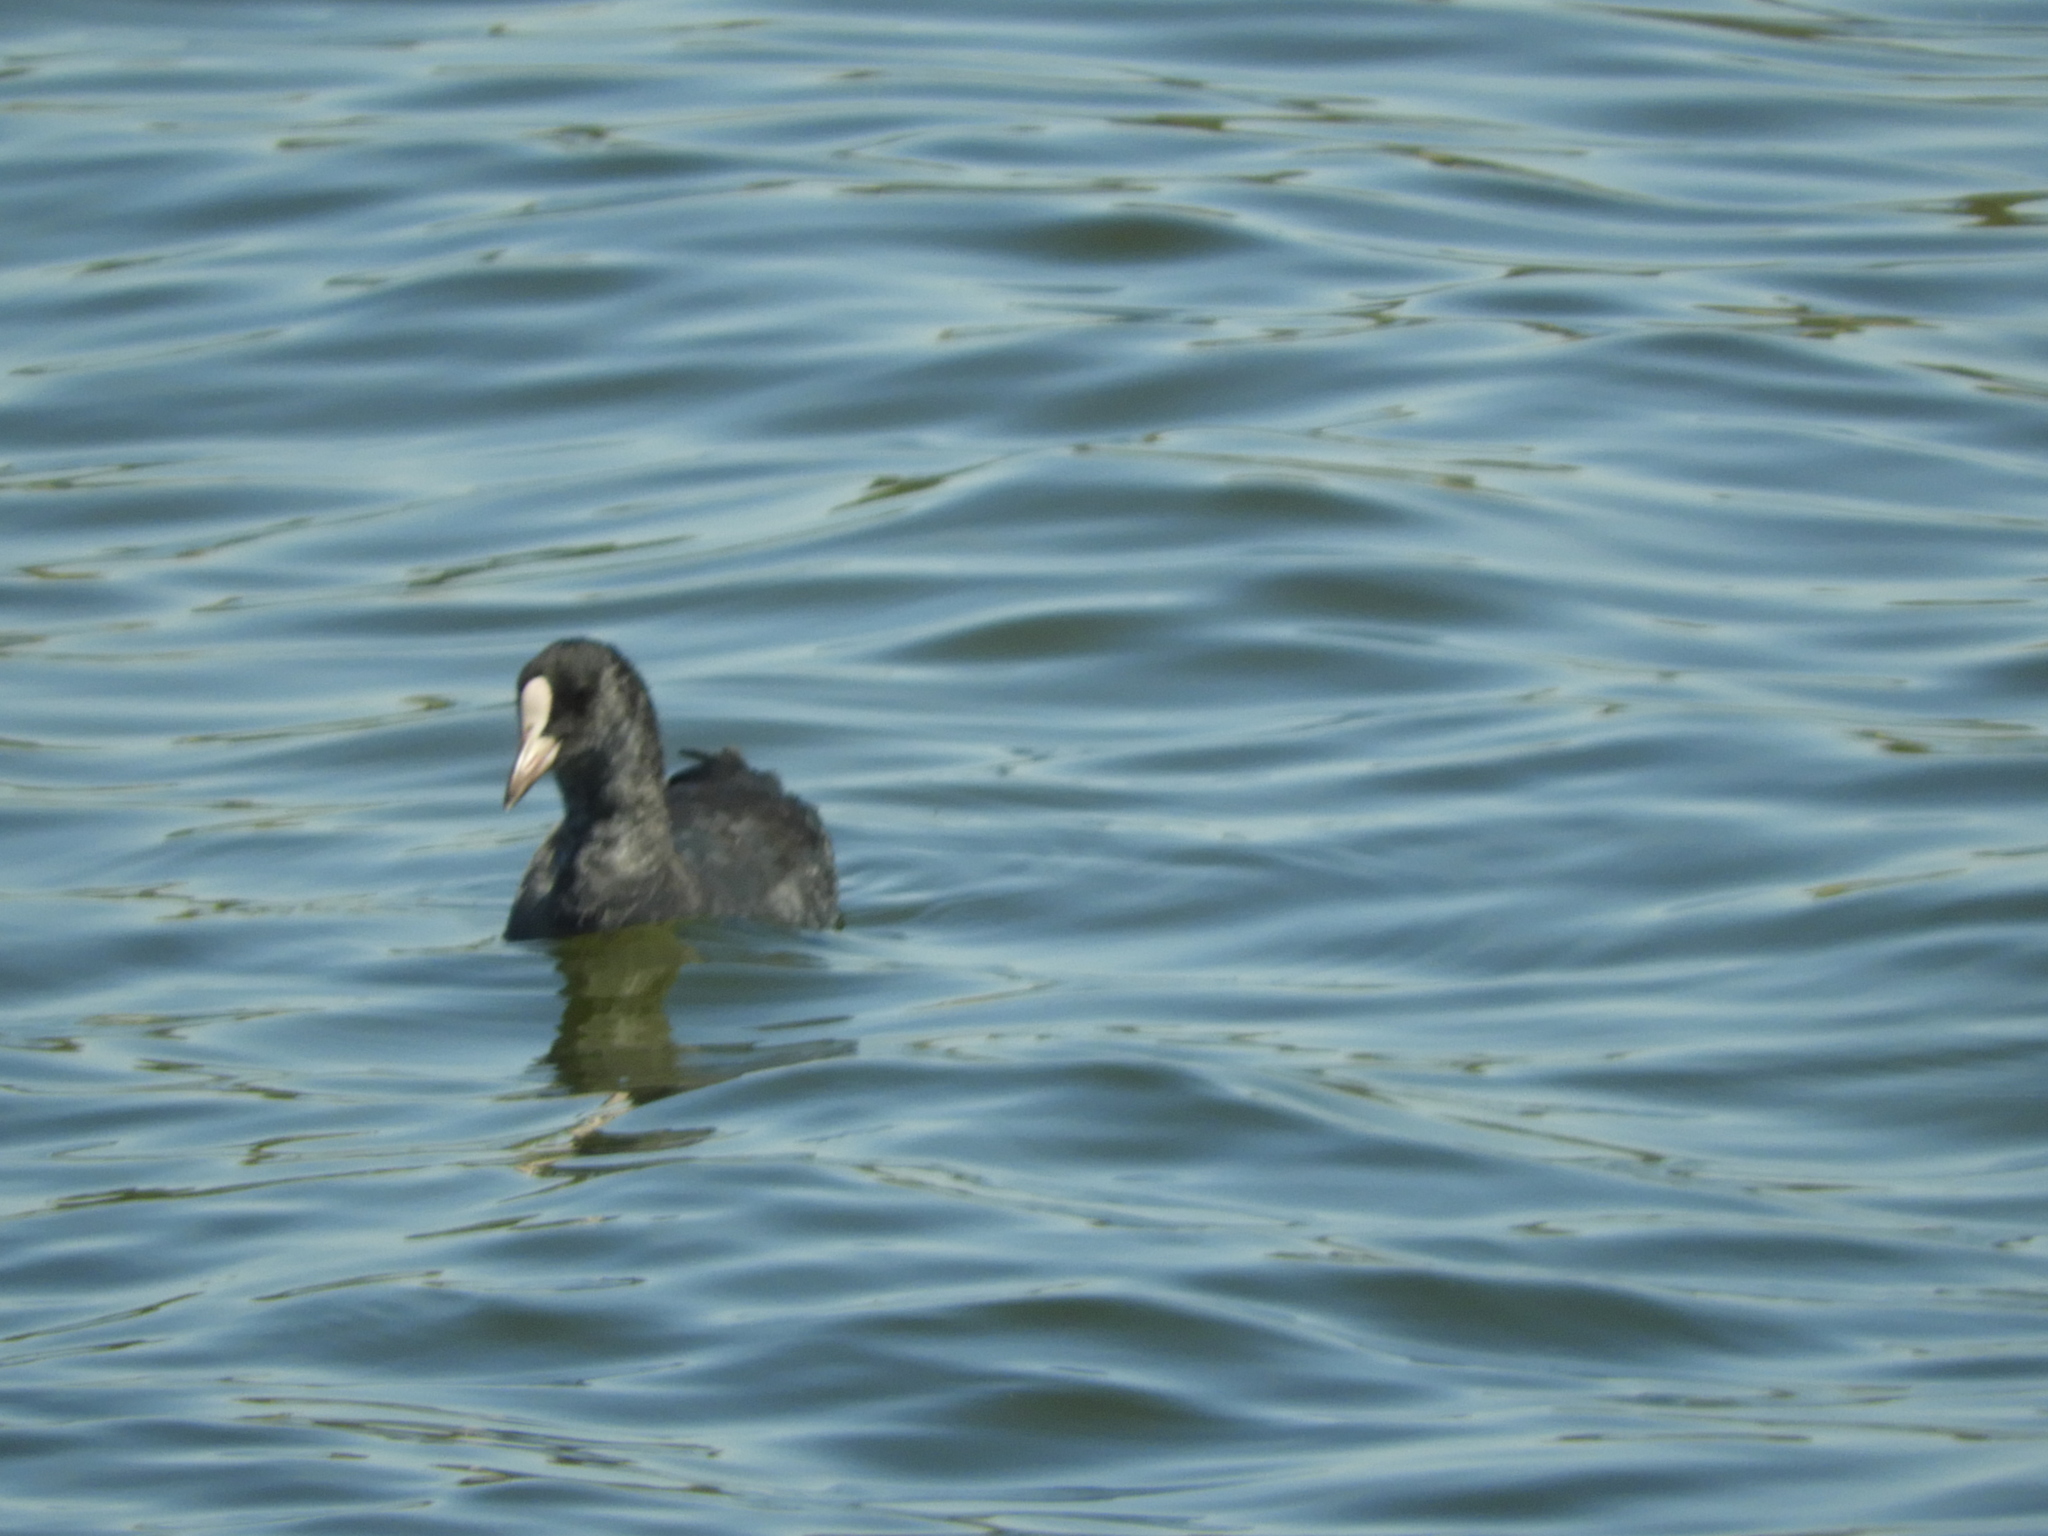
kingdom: Animalia
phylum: Chordata
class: Aves
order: Gruiformes
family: Rallidae
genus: Fulica
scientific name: Fulica atra
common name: Eurasian coot
